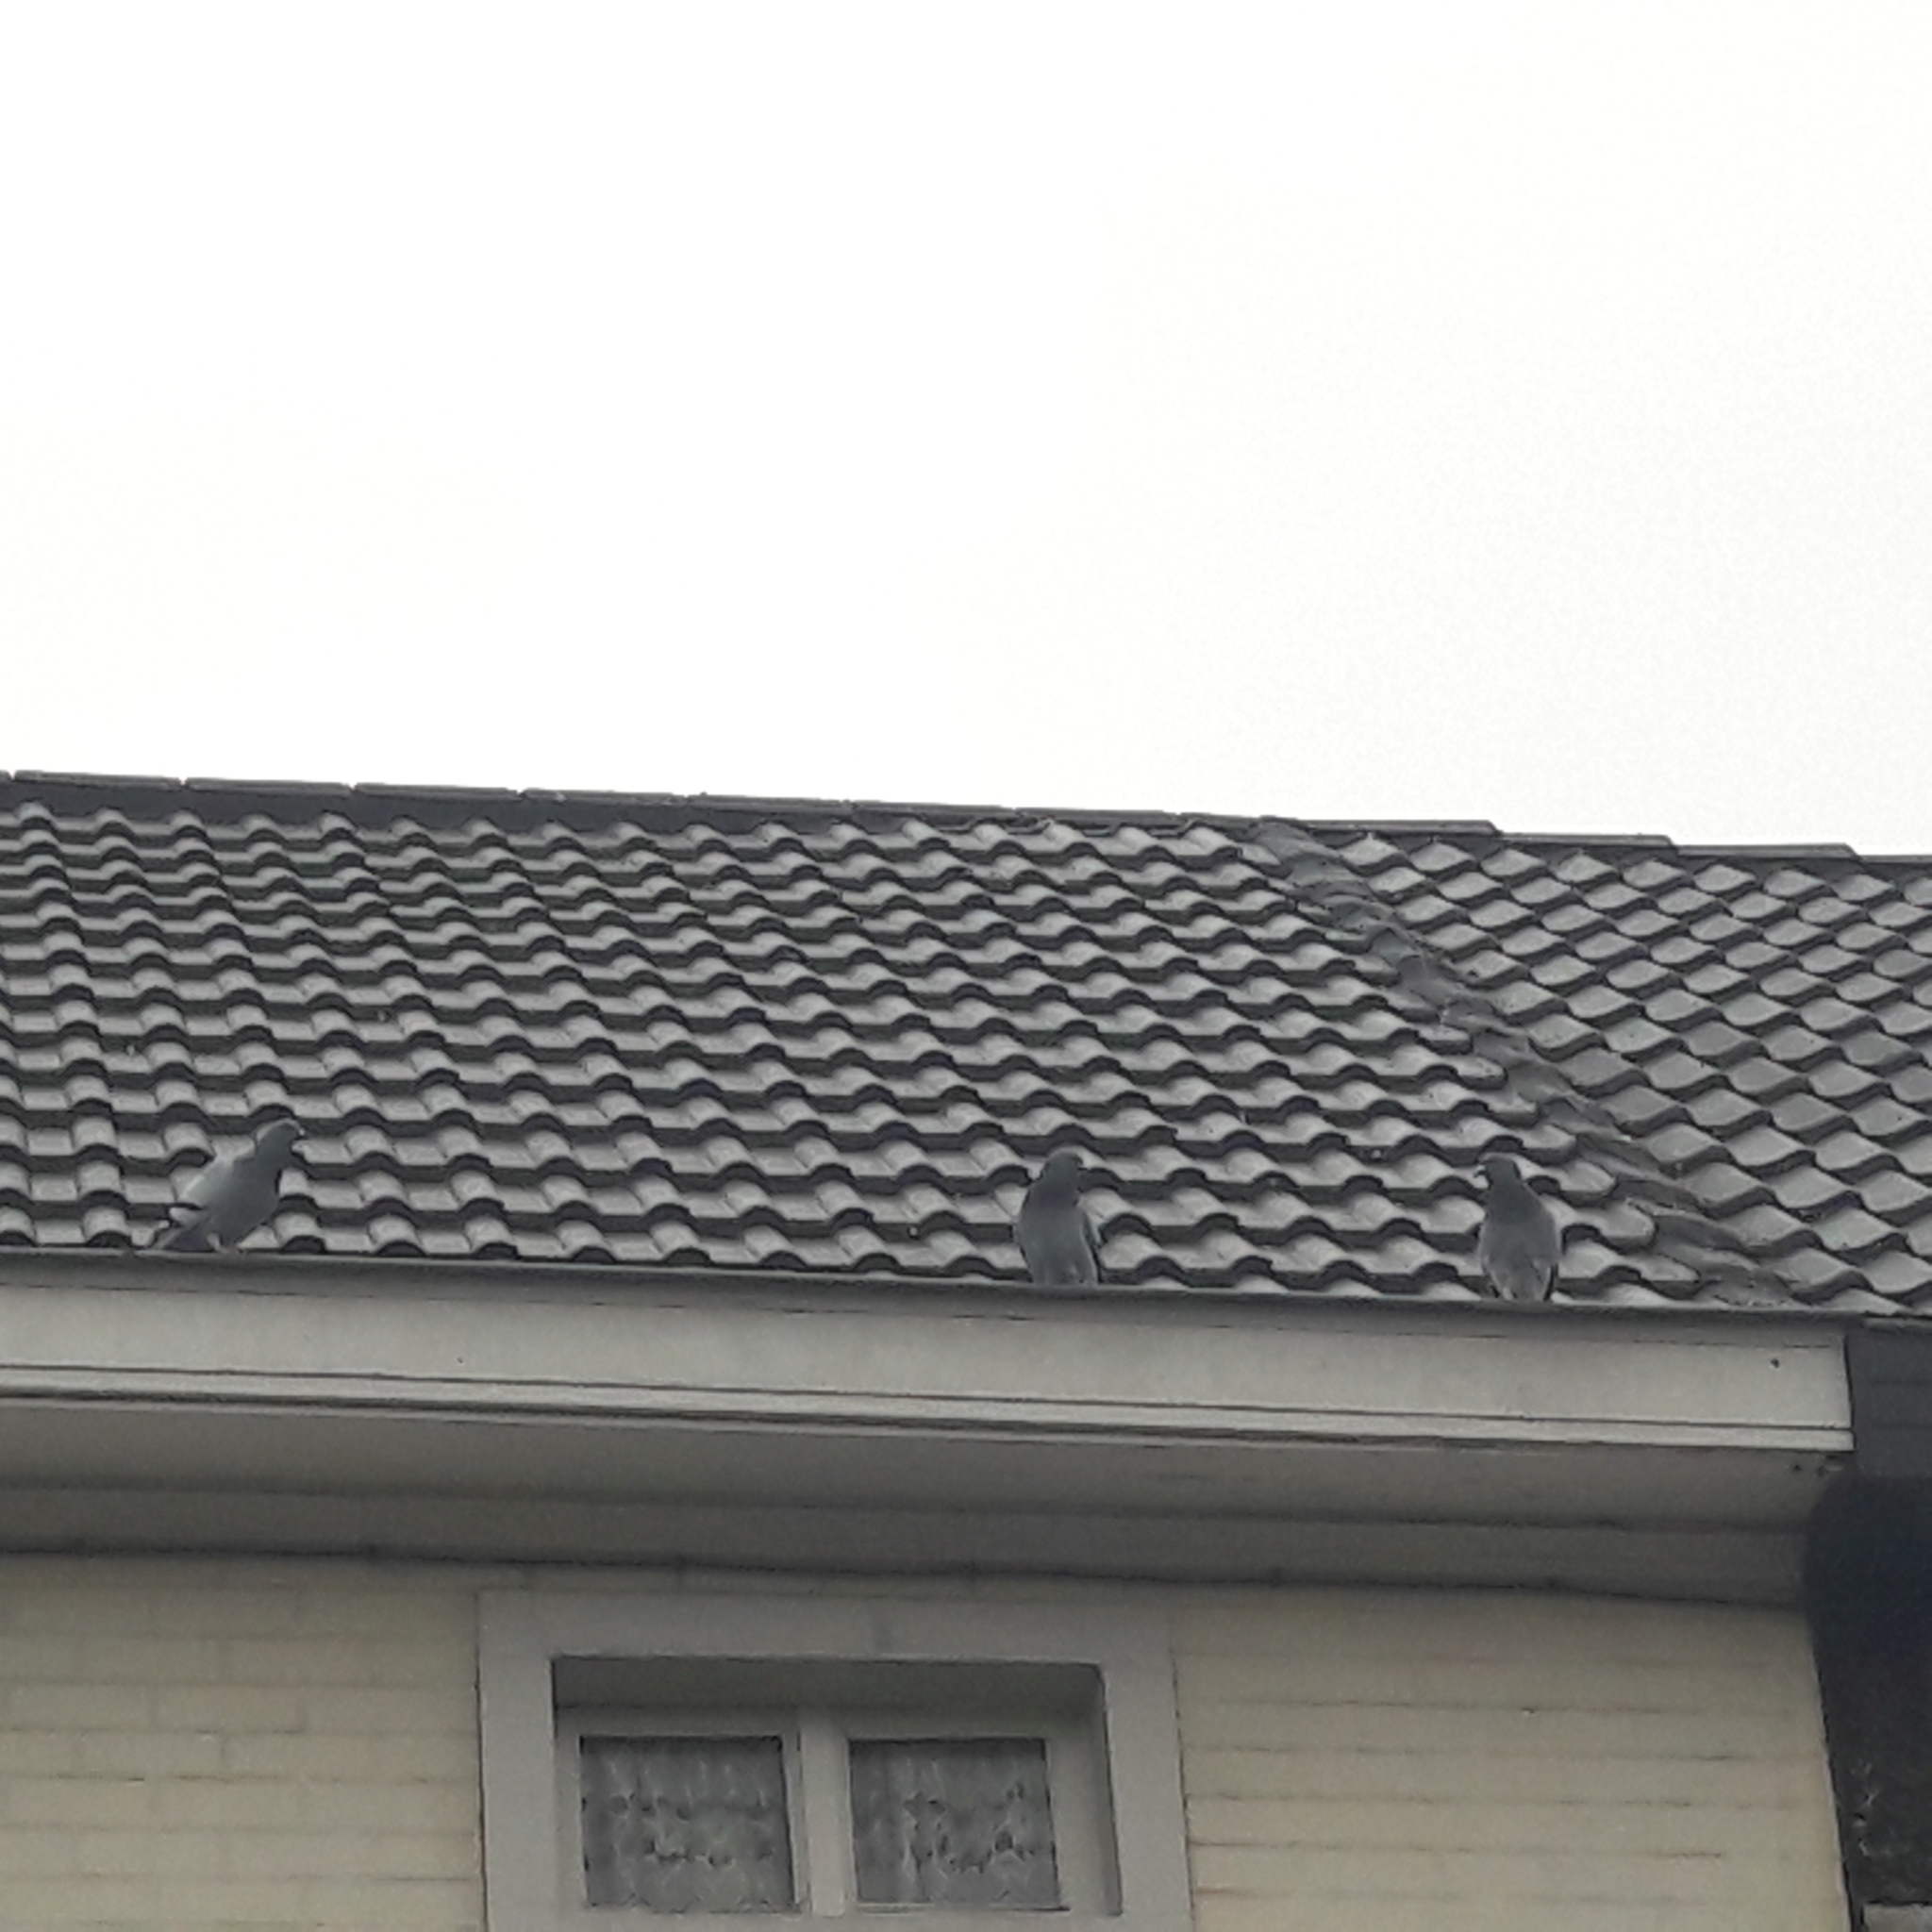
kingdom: Animalia
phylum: Chordata
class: Aves
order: Columbiformes
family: Columbidae
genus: Columba
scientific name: Columba livia
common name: Rock pigeon
